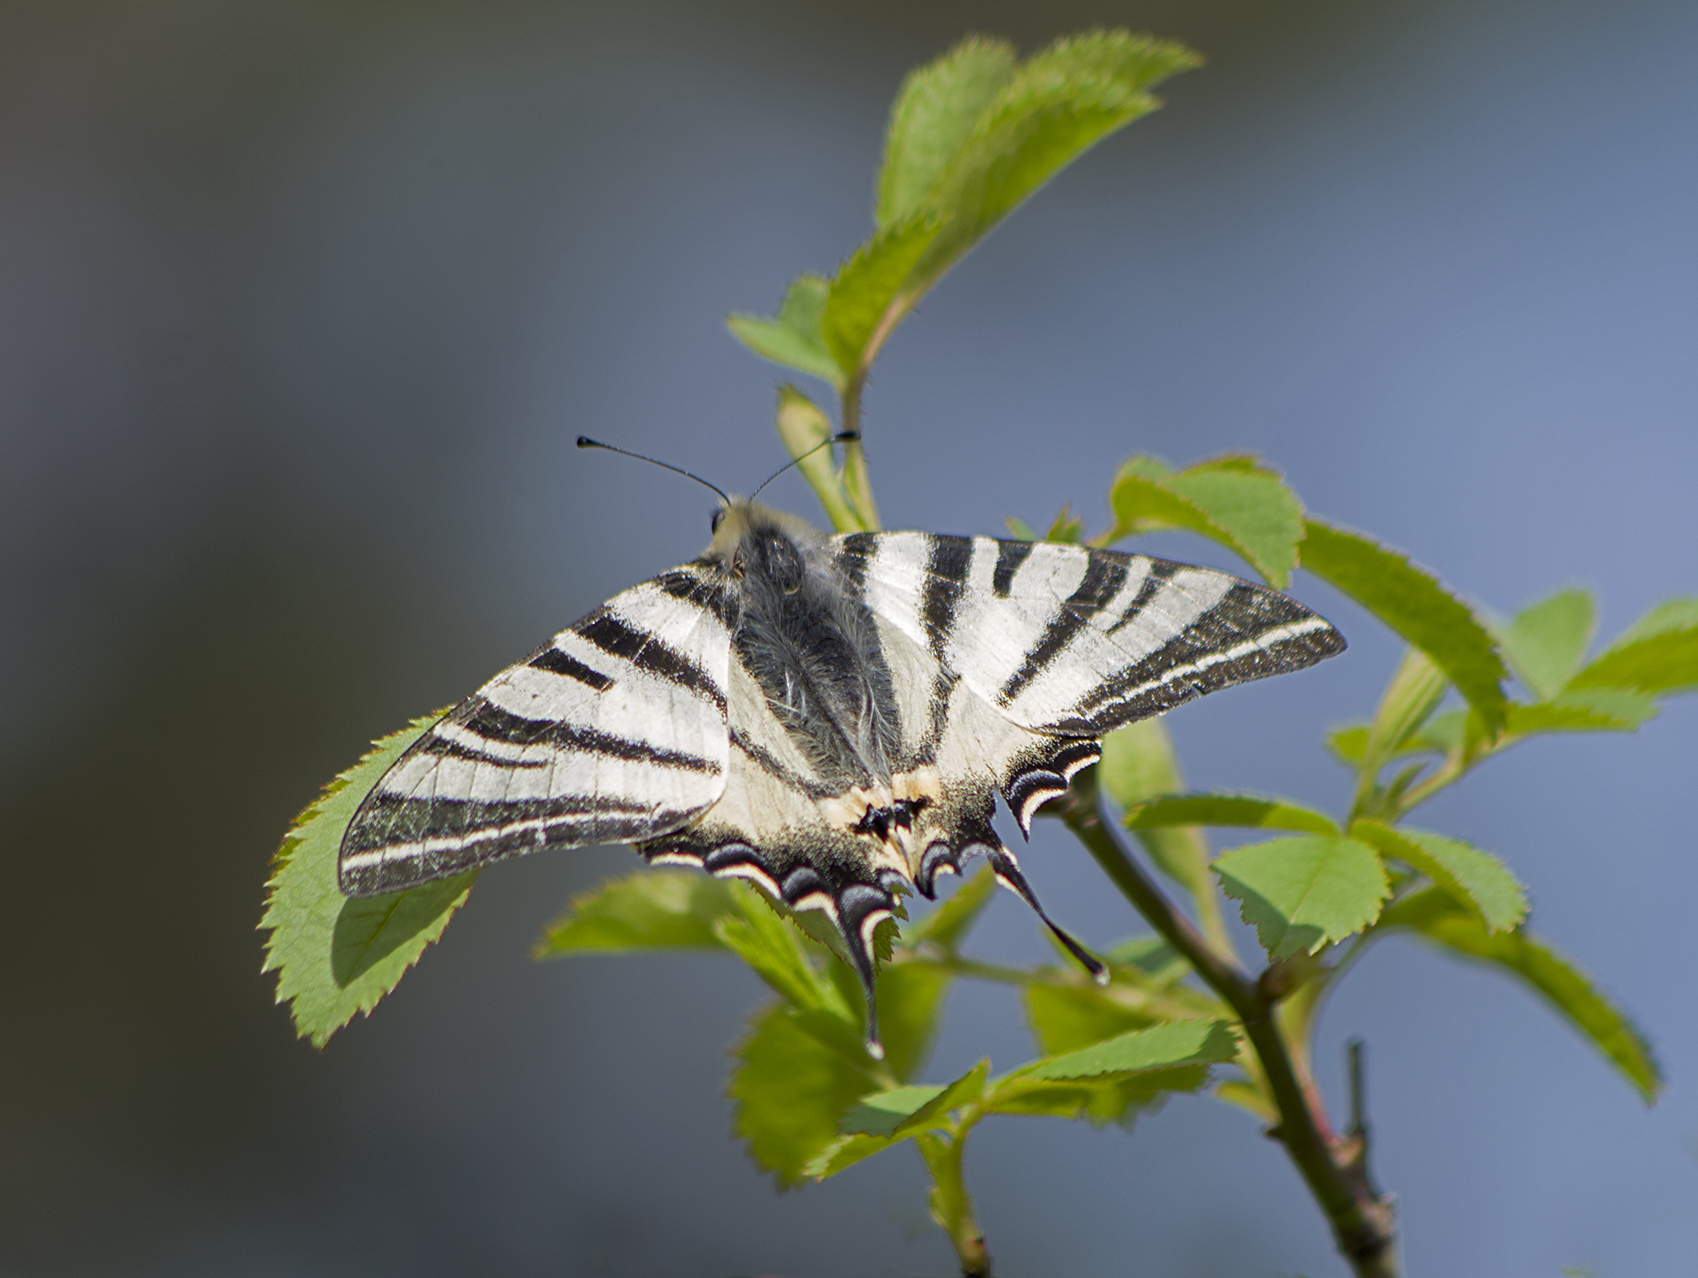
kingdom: Animalia
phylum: Arthropoda
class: Insecta
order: Lepidoptera
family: Papilionidae
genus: Iphiclides
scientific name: Iphiclides podalirius
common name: Scarce swallowtail
